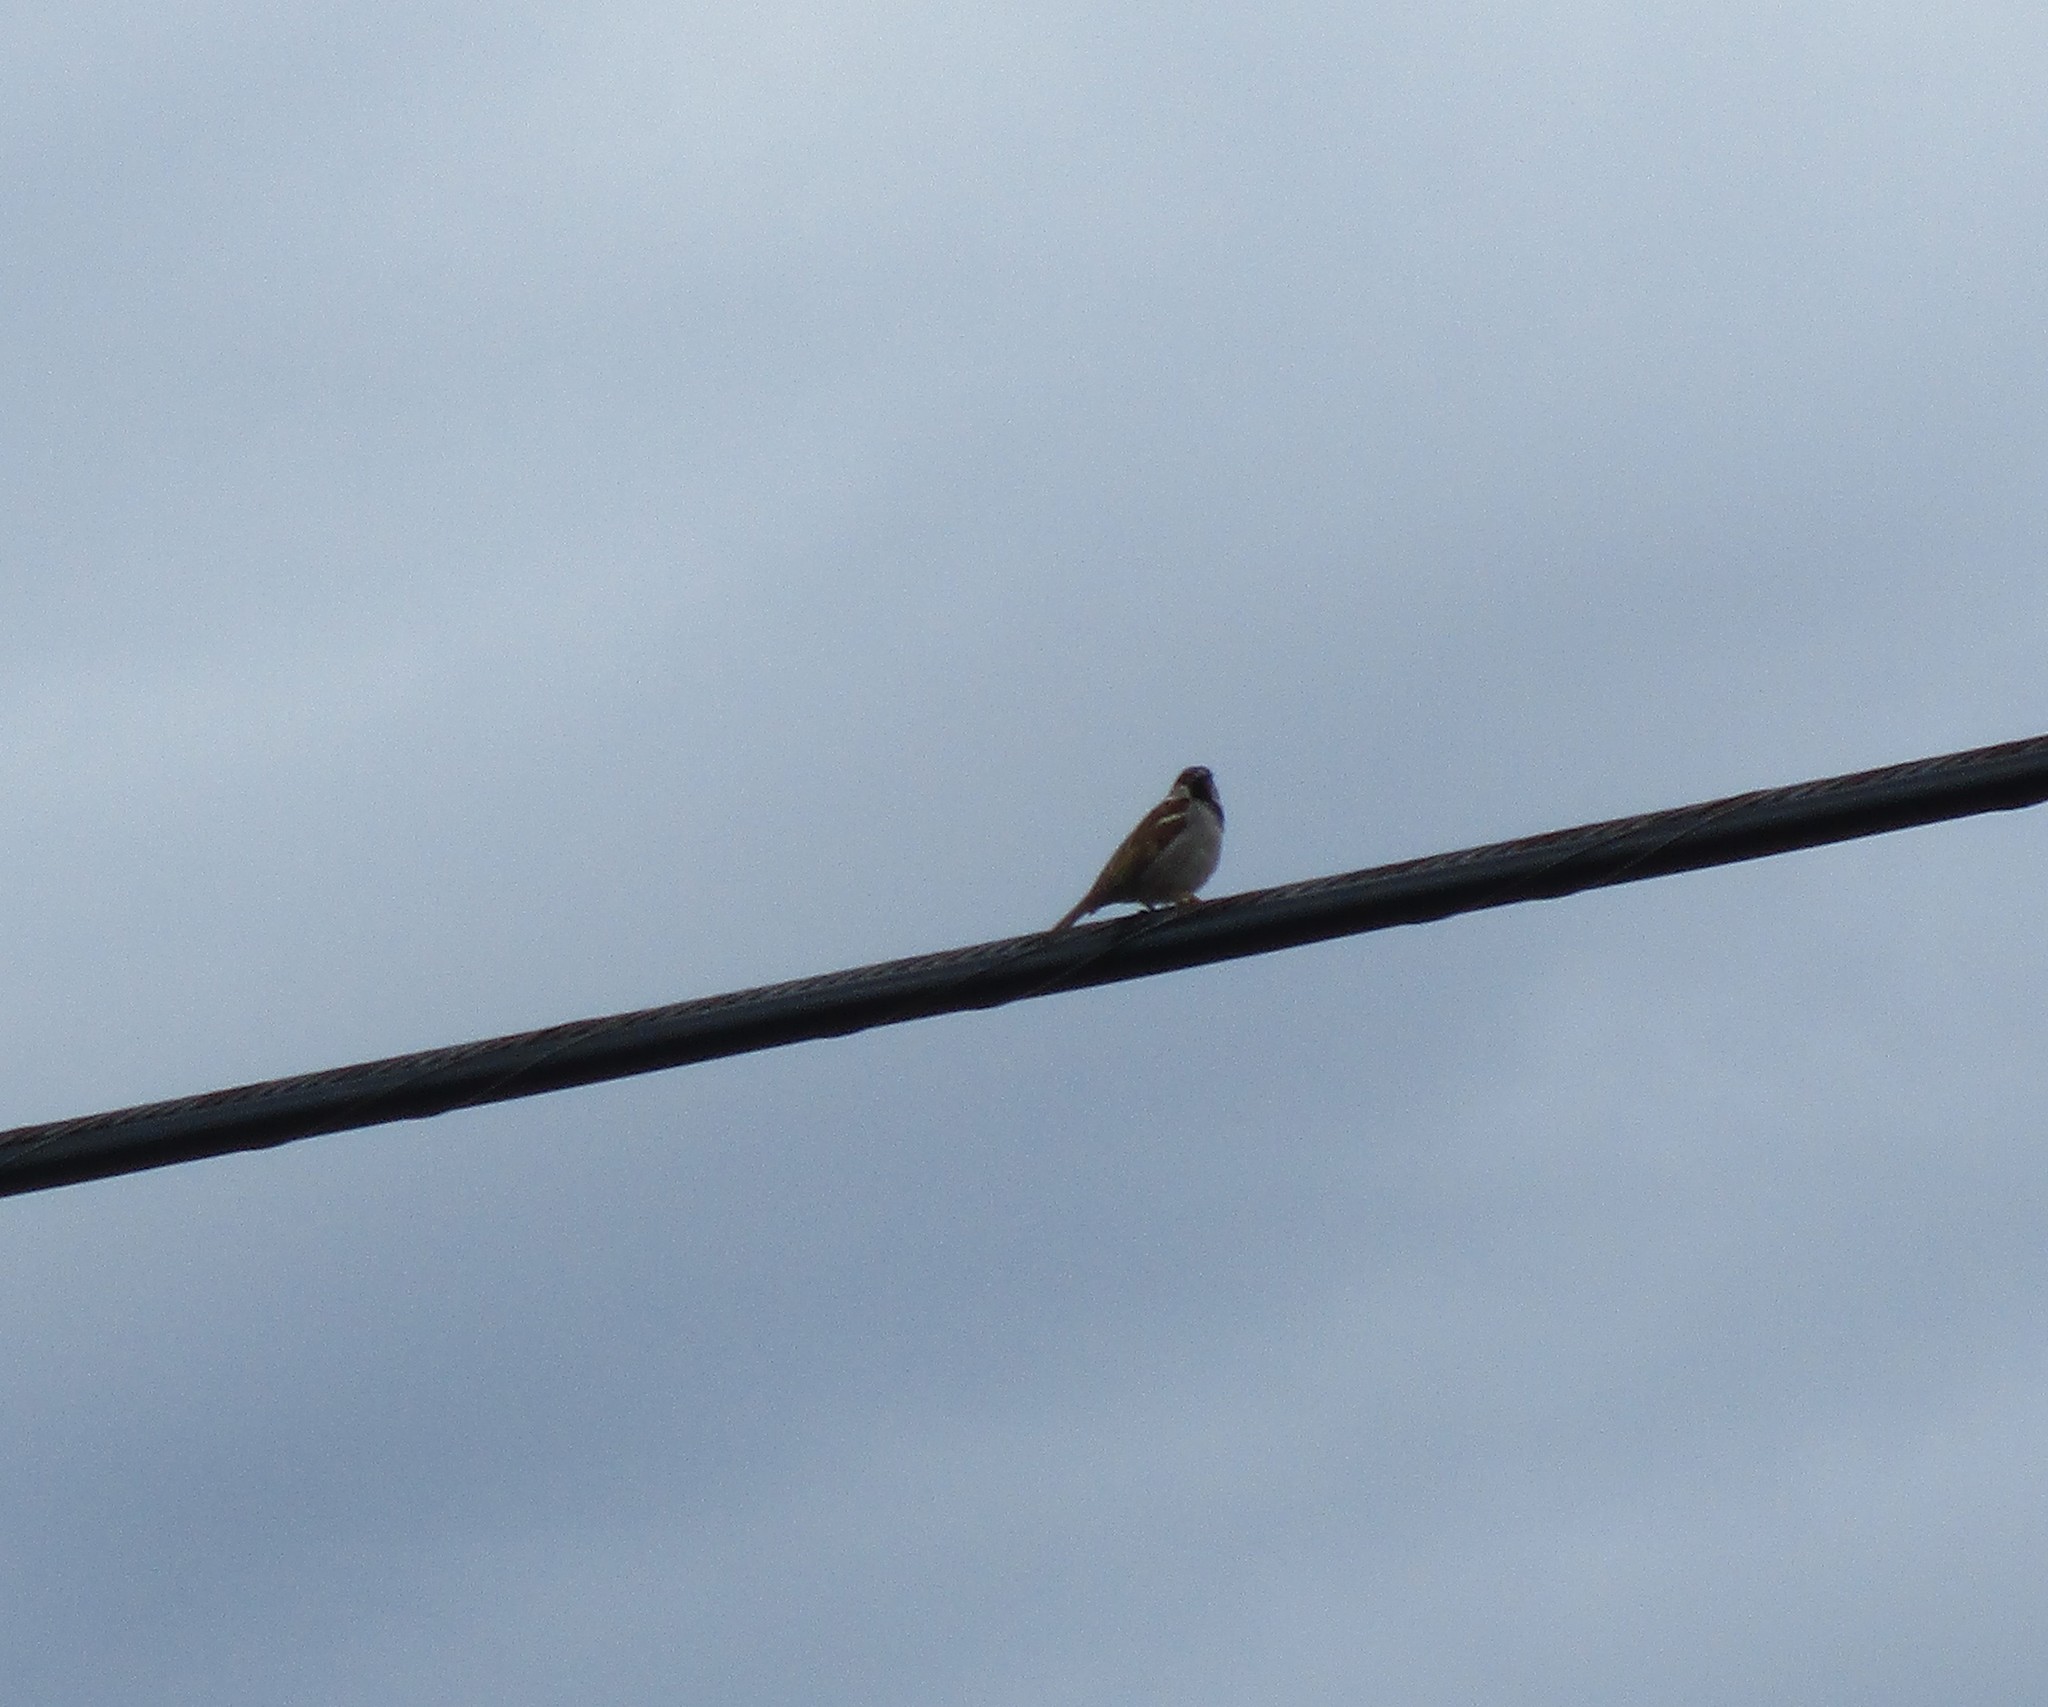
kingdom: Animalia
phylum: Chordata
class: Aves
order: Passeriformes
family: Passeridae
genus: Passer
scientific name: Passer domesticus
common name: House sparrow
